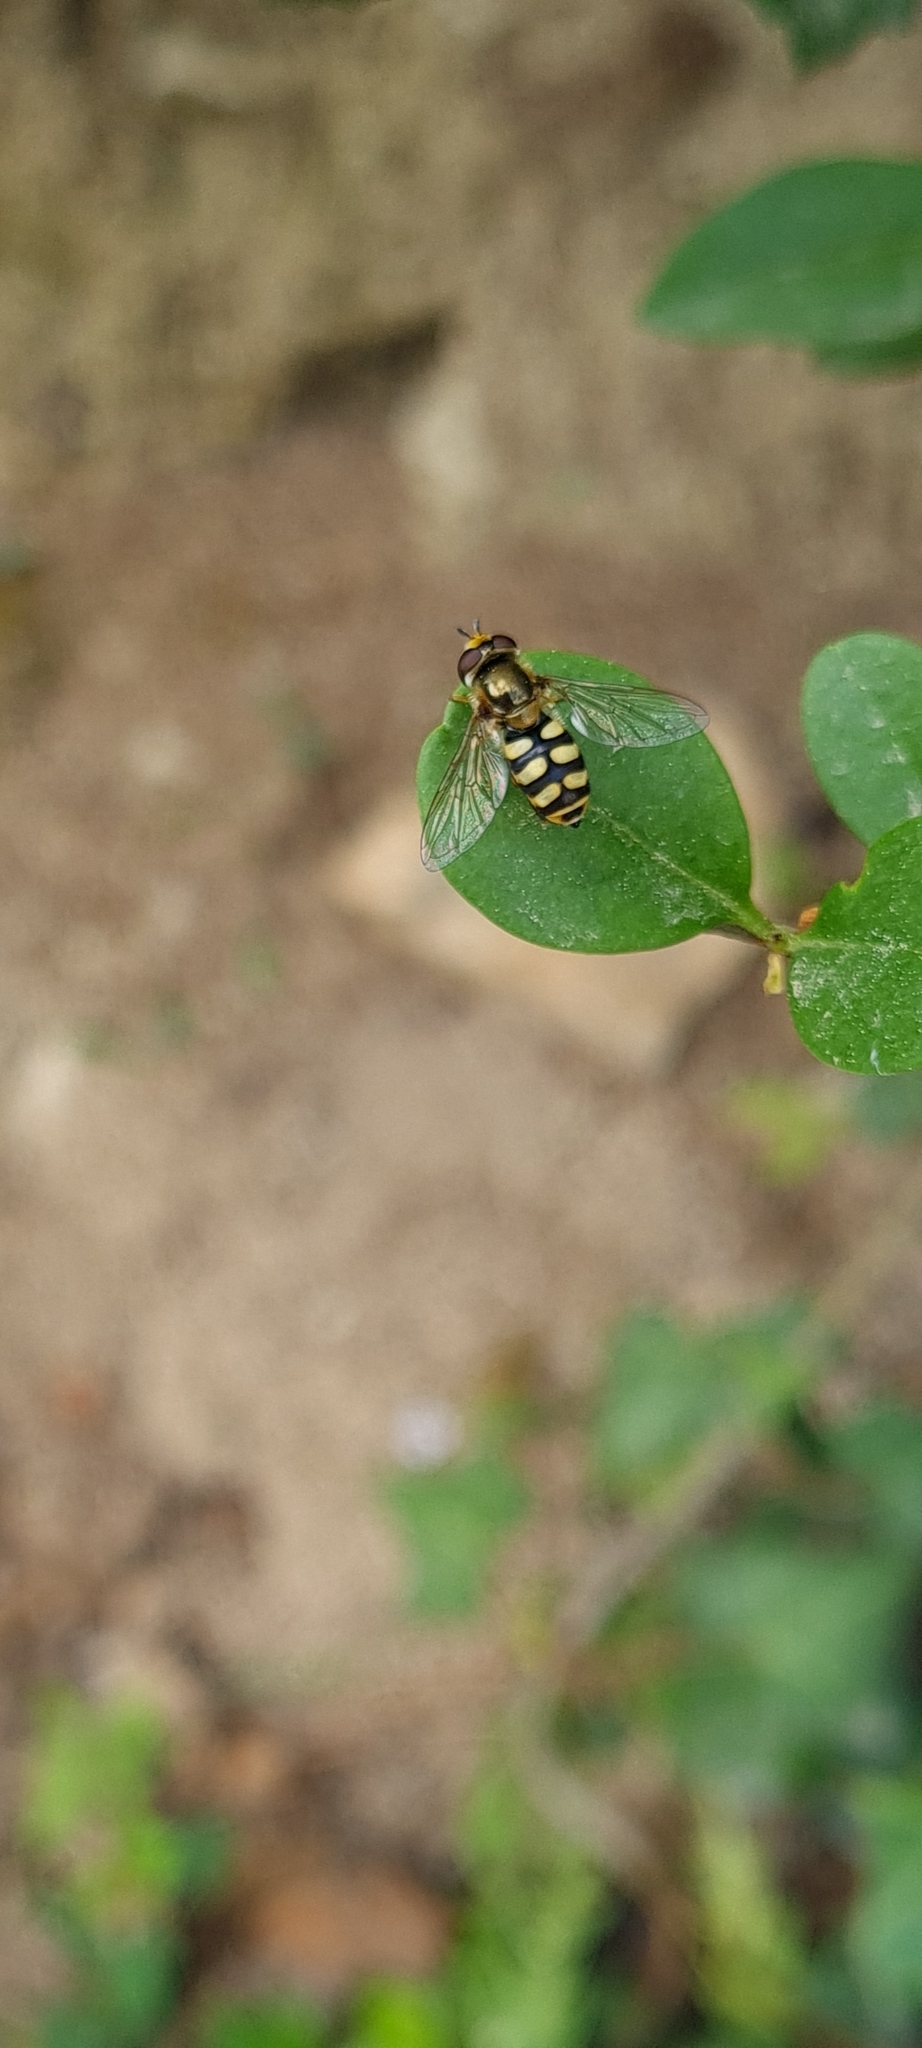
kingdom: Animalia
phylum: Arthropoda
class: Insecta
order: Diptera
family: Syrphidae
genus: Eupeodes
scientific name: Eupeodes corollae
